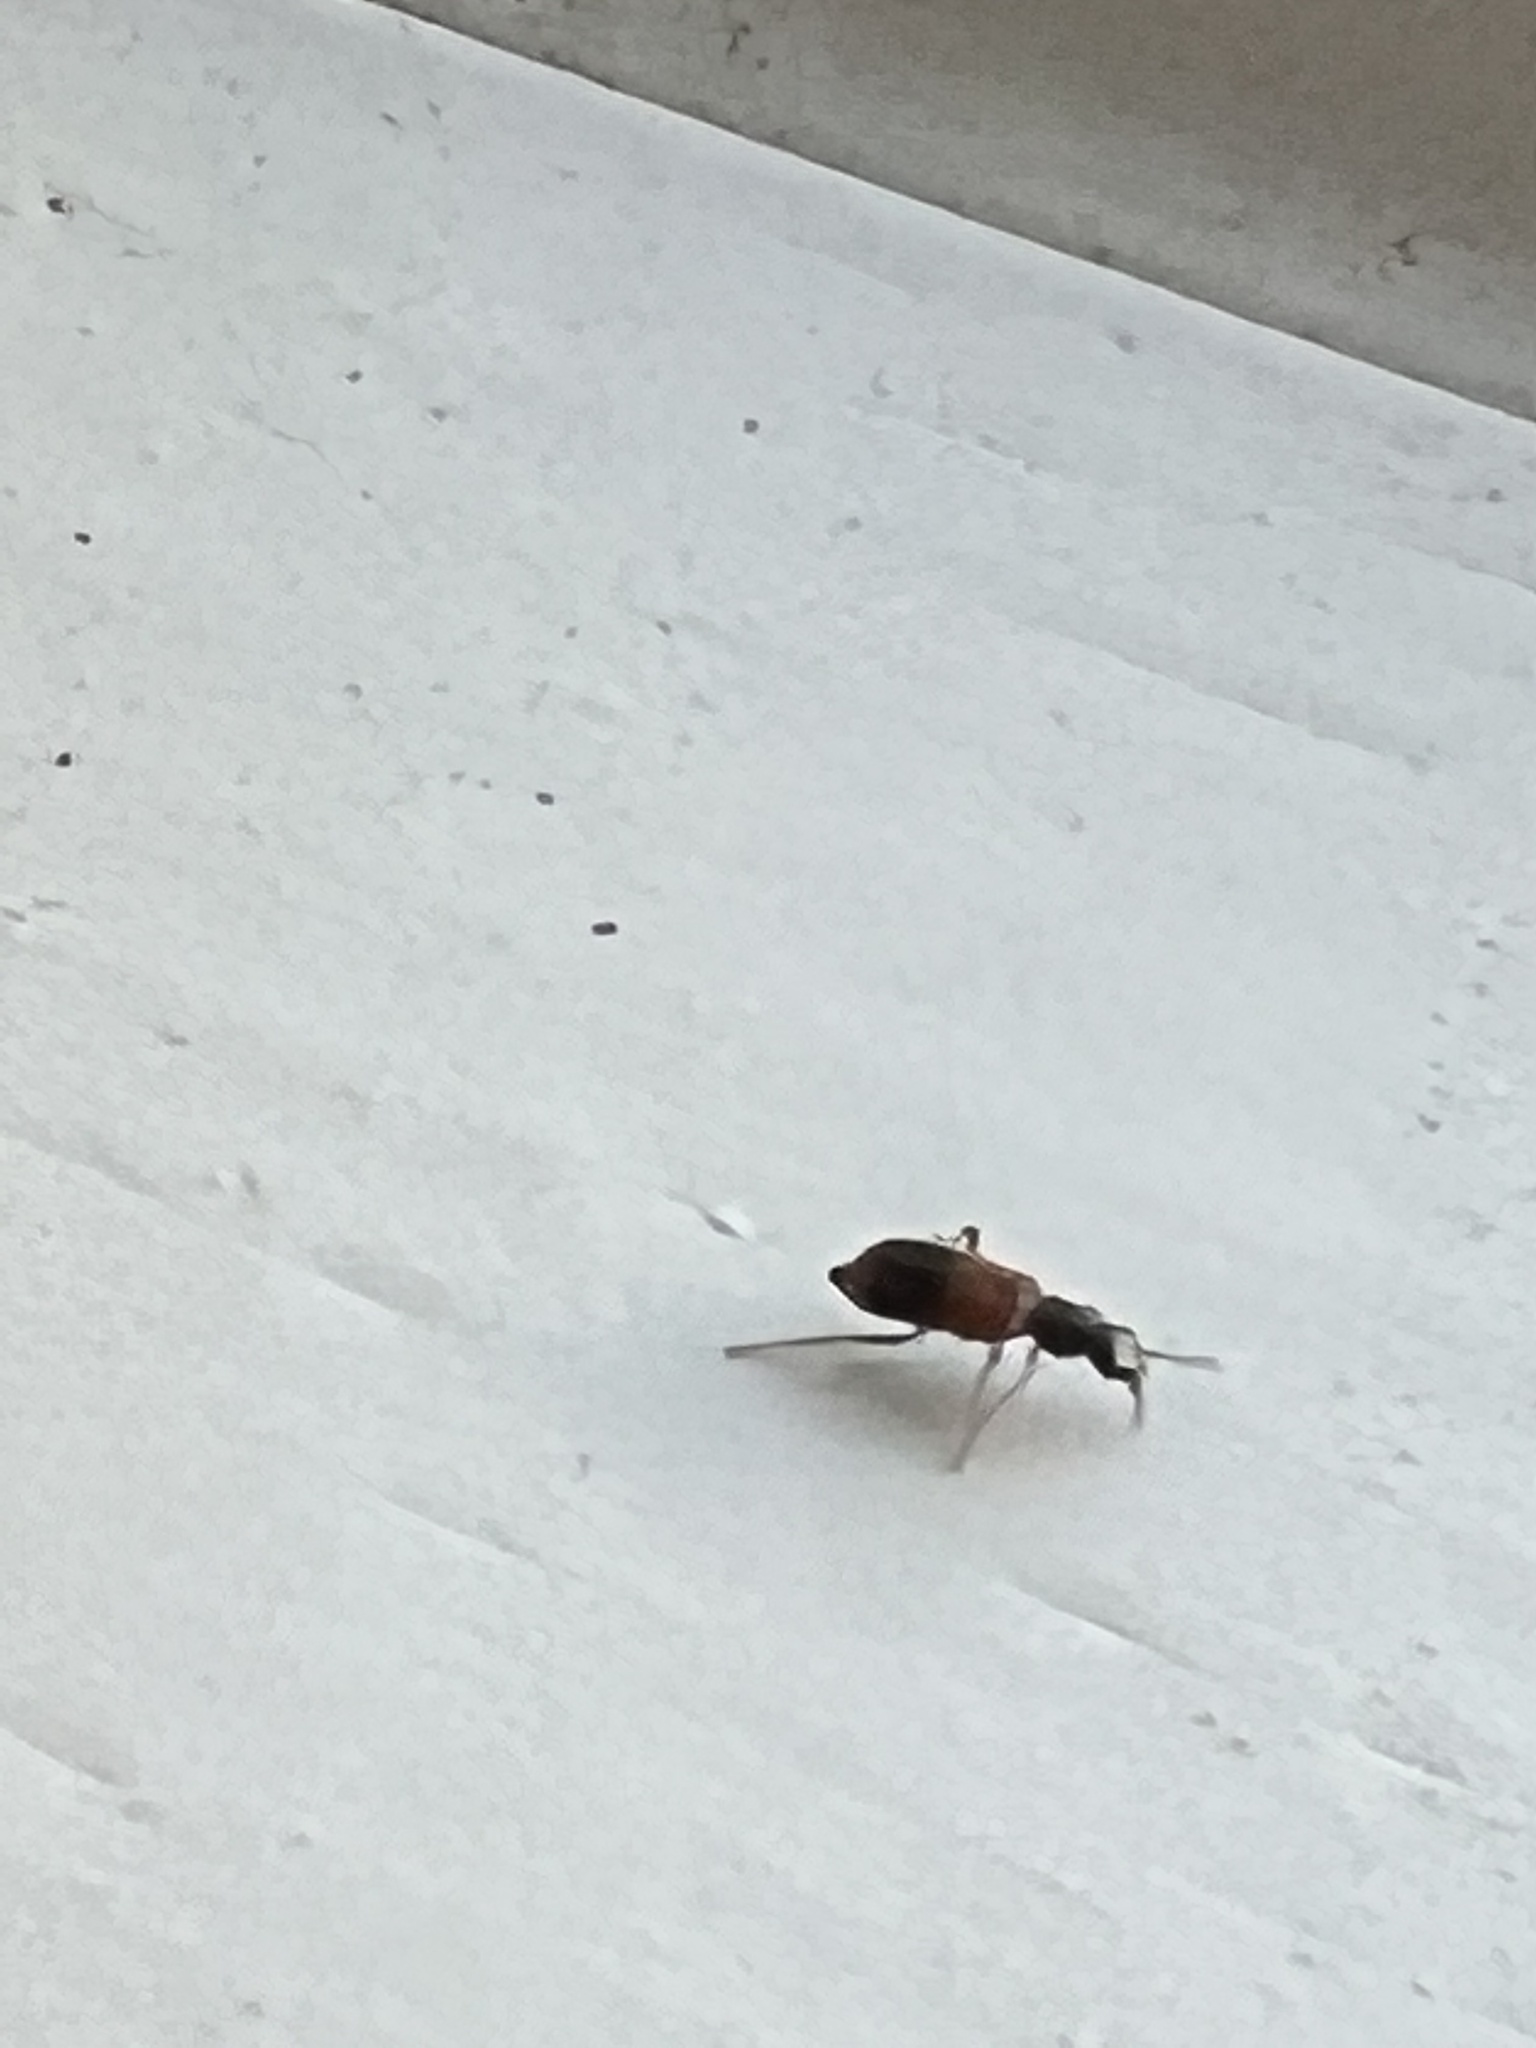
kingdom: Animalia
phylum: Arthropoda
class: Insecta
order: Coleoptera
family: Melyridae
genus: Anthocomus
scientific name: Anthocomus equestris
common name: Black-banded soft-winged flower beetle
